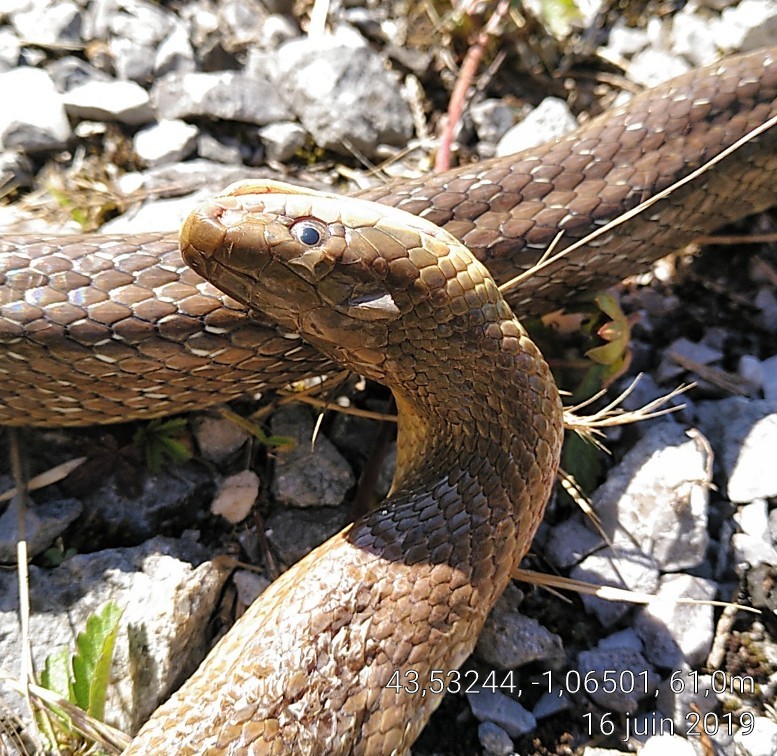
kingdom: Animalia
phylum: Chordata
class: Squamata
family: Colubridae
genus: Zamenis
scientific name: Zamenis longissimus
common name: Aesculapean snake
